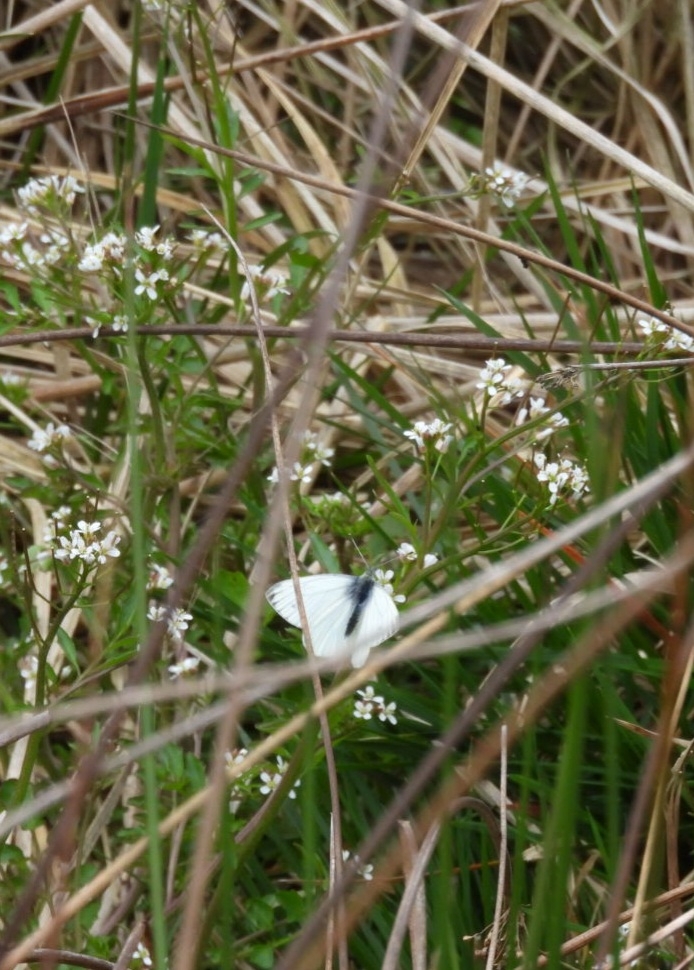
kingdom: Animalia
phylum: Arthropoda
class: Insecta
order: Lepidoptera
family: Pieridae
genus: Pieris
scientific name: Pieris napi
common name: Green-veined white
